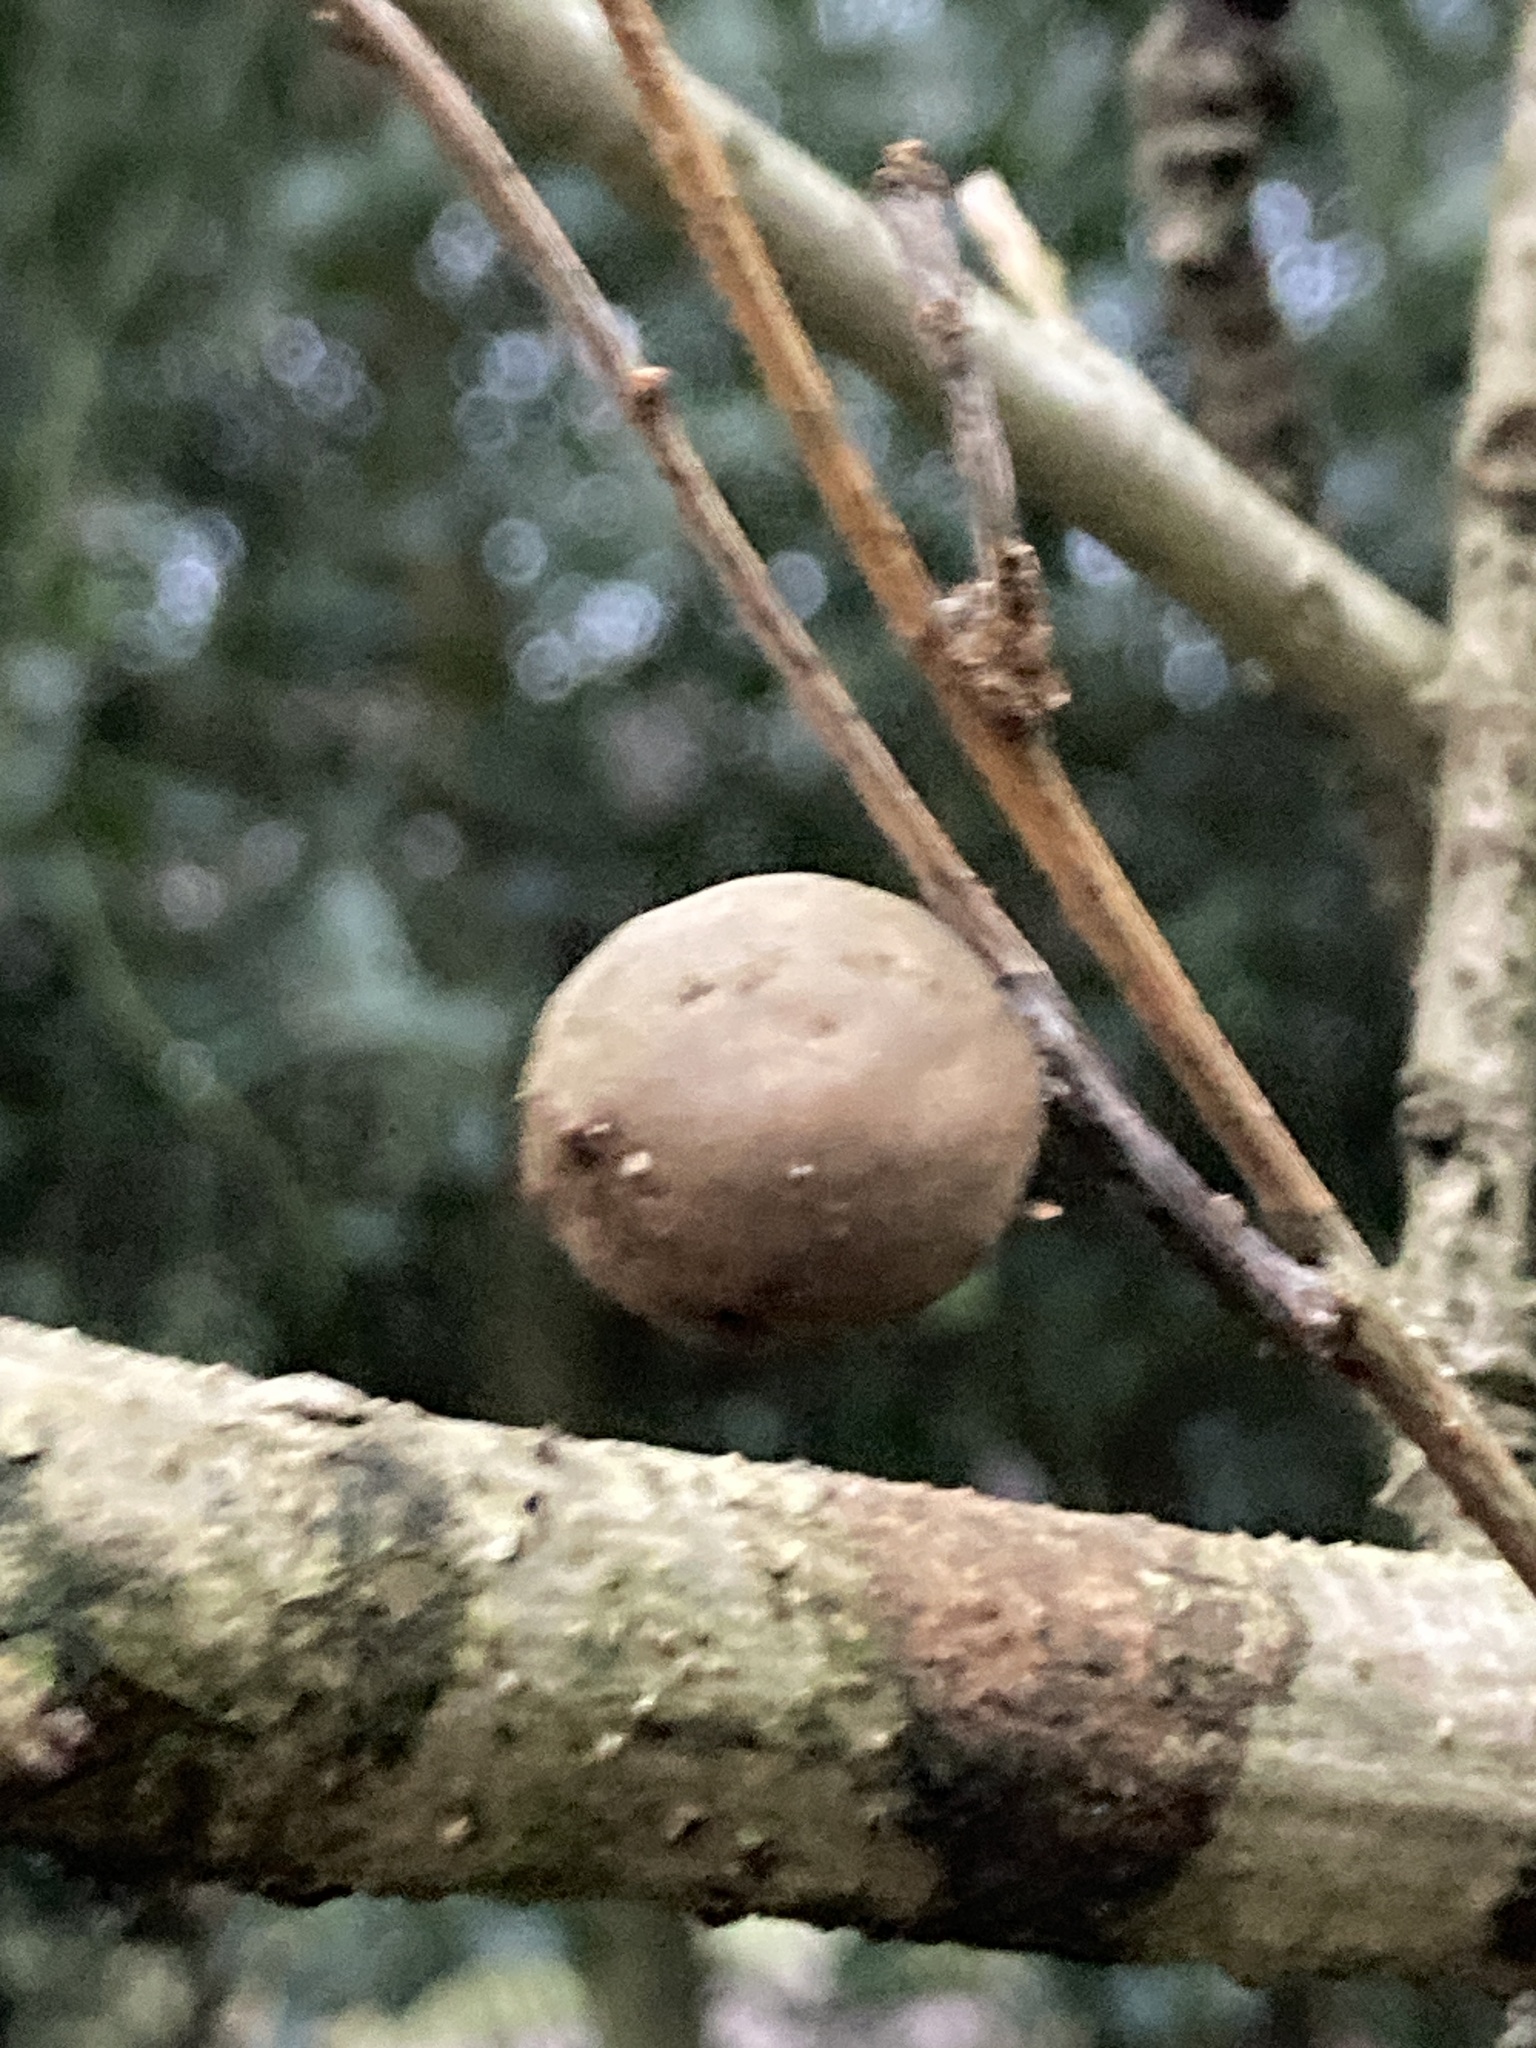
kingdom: Animalia
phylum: Arthropoda
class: Insecta
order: Hymenoptera
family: Cynipidae
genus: Andricus
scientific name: Andricus kollari
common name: Marble gall
